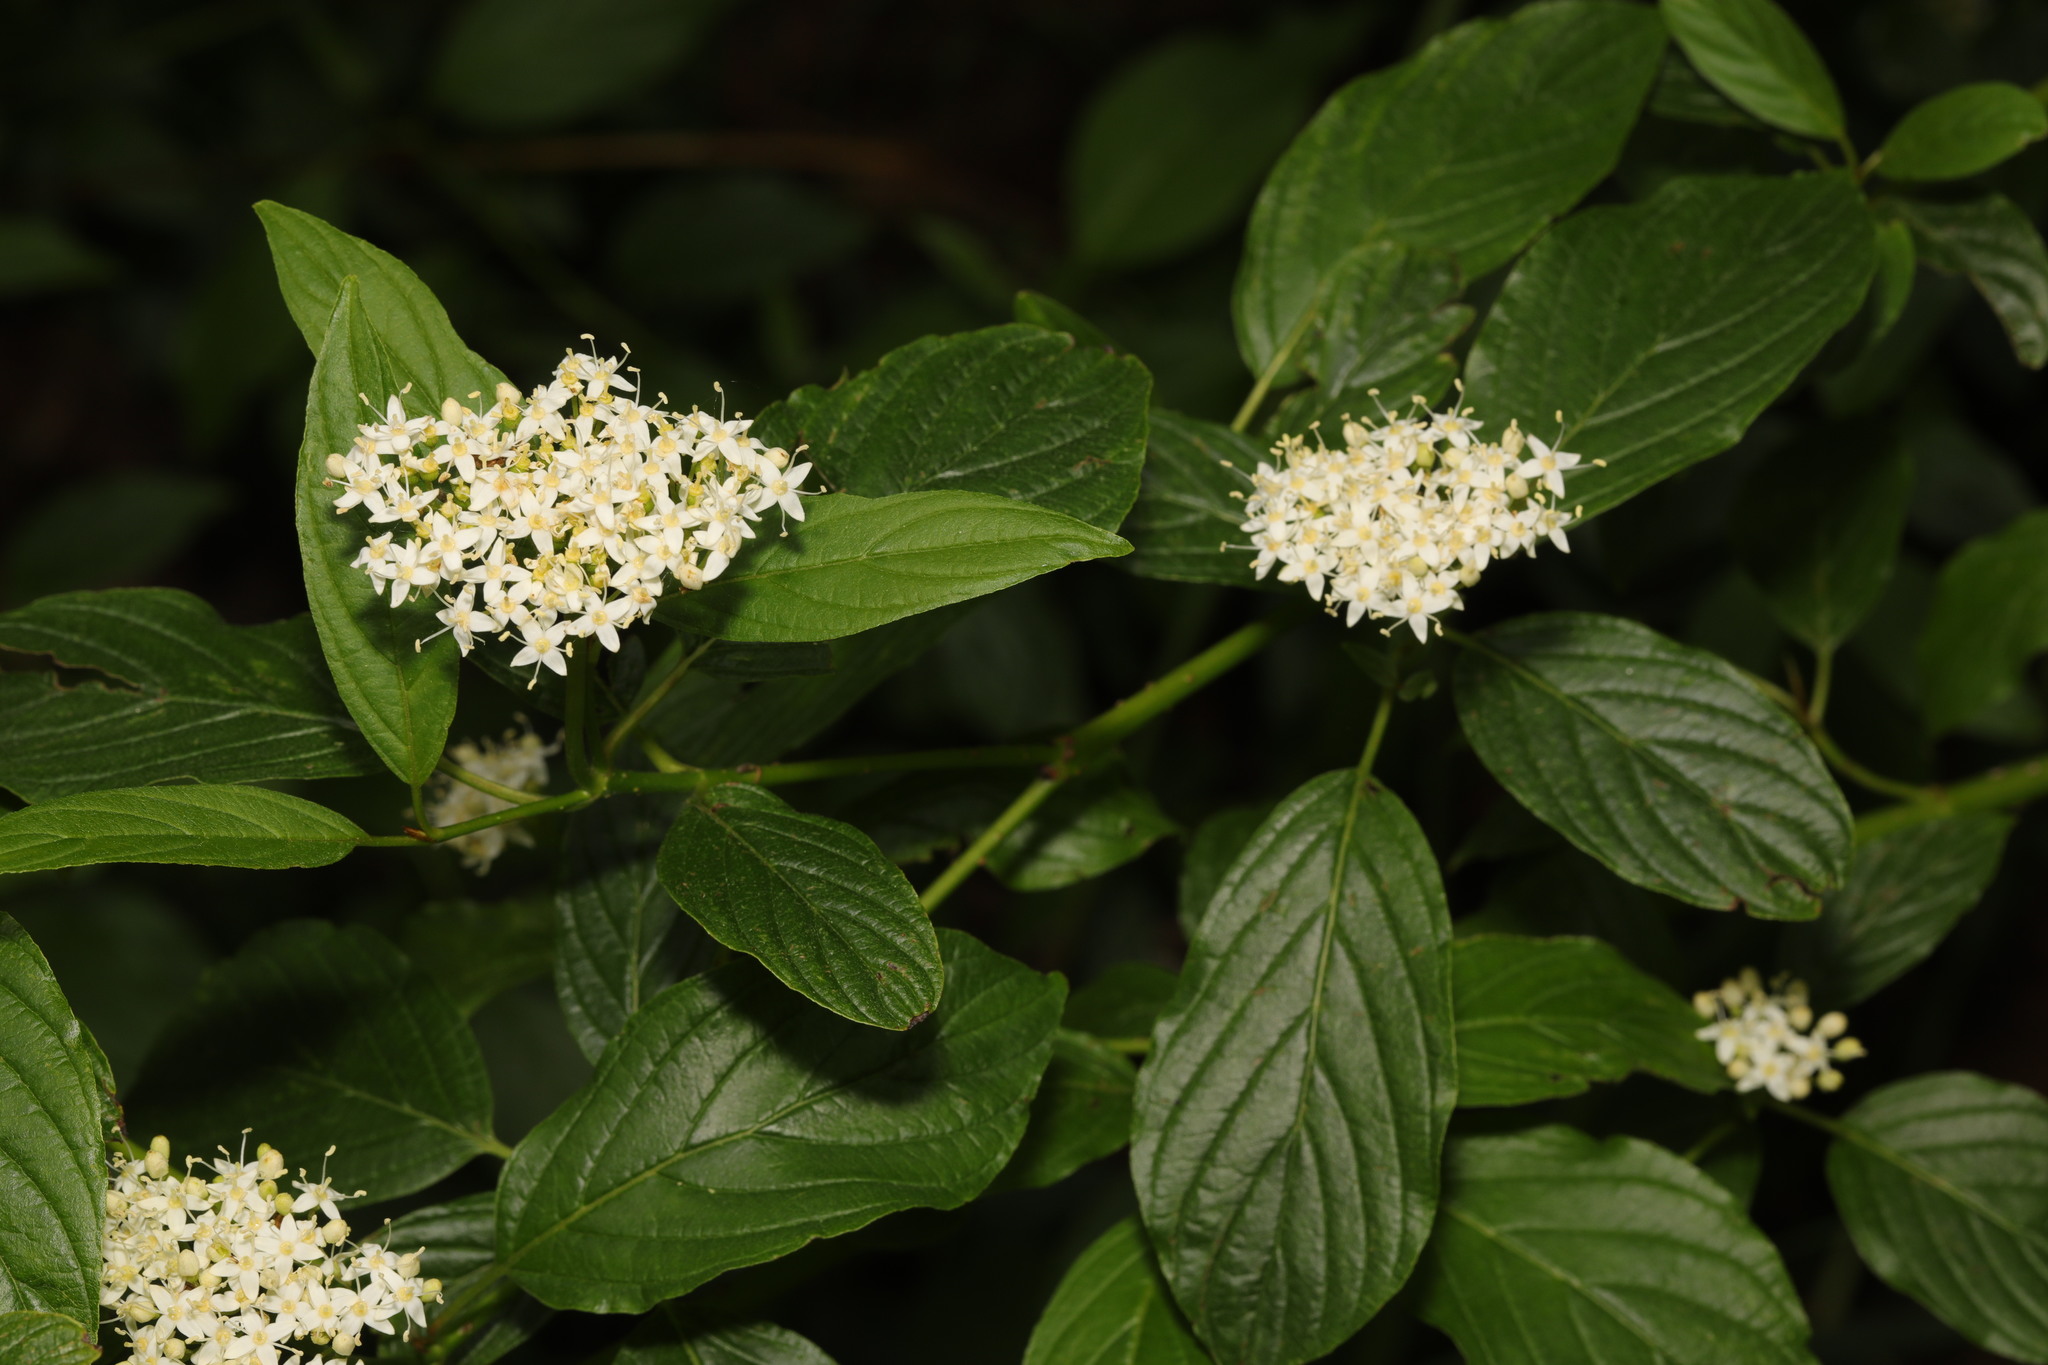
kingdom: Plantae
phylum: Tracheophyta
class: Magnoliopsida
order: Cornales
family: Cornaceae
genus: Cornus
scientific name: Cornus sericea
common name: Red-osier dogwood
